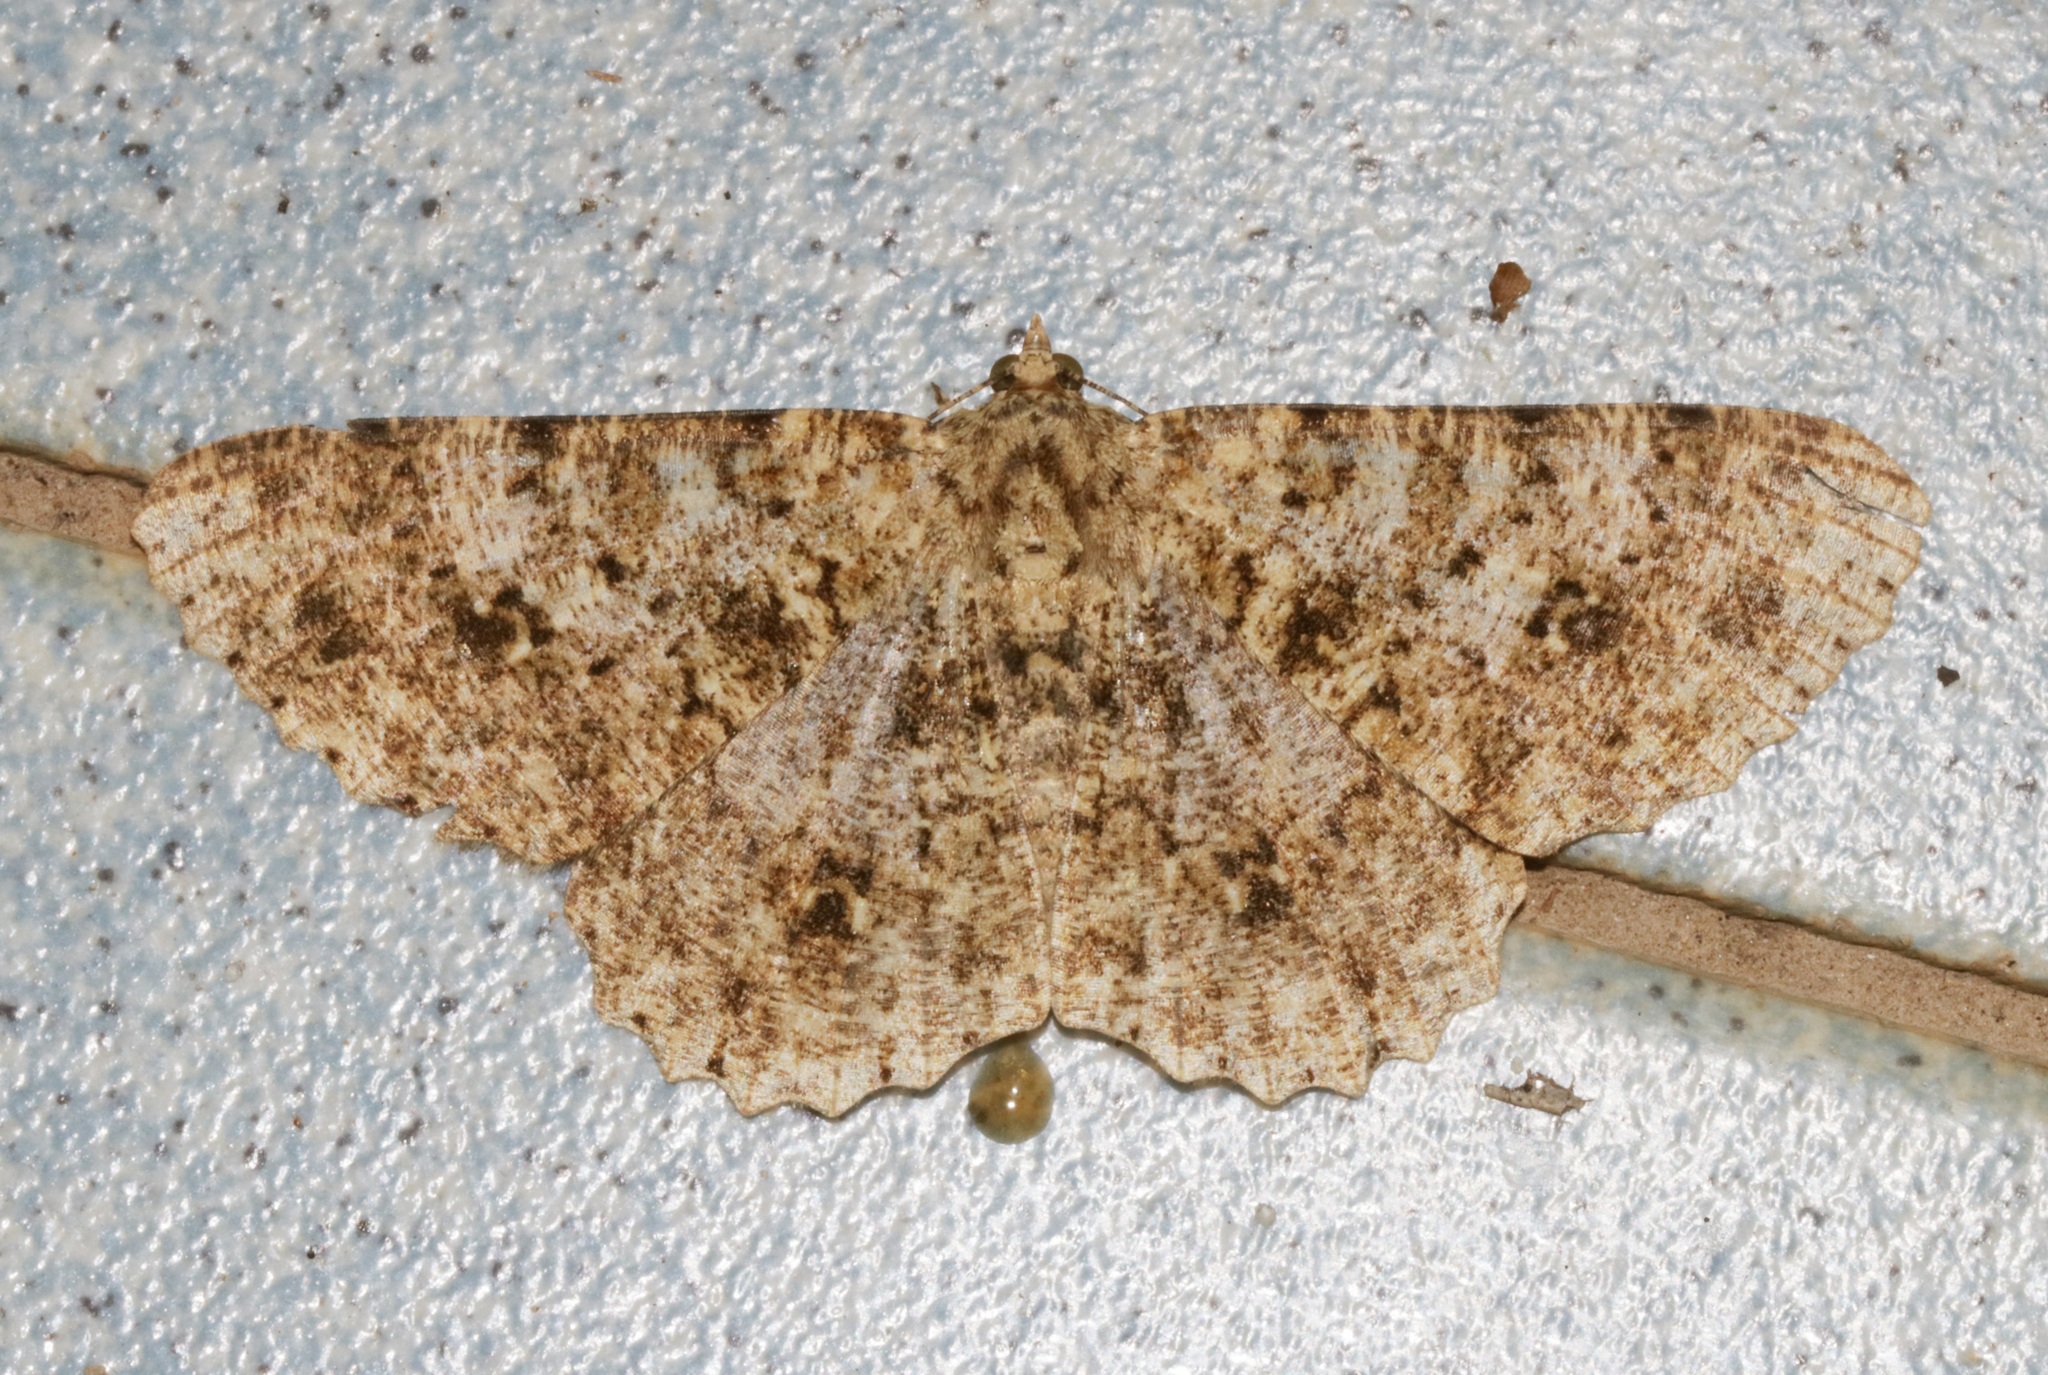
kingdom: Animalia
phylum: Arthropoda
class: Insecta
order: Lepidoptera
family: Geometridae
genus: Racotis
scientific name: Racotis boarmiaria
